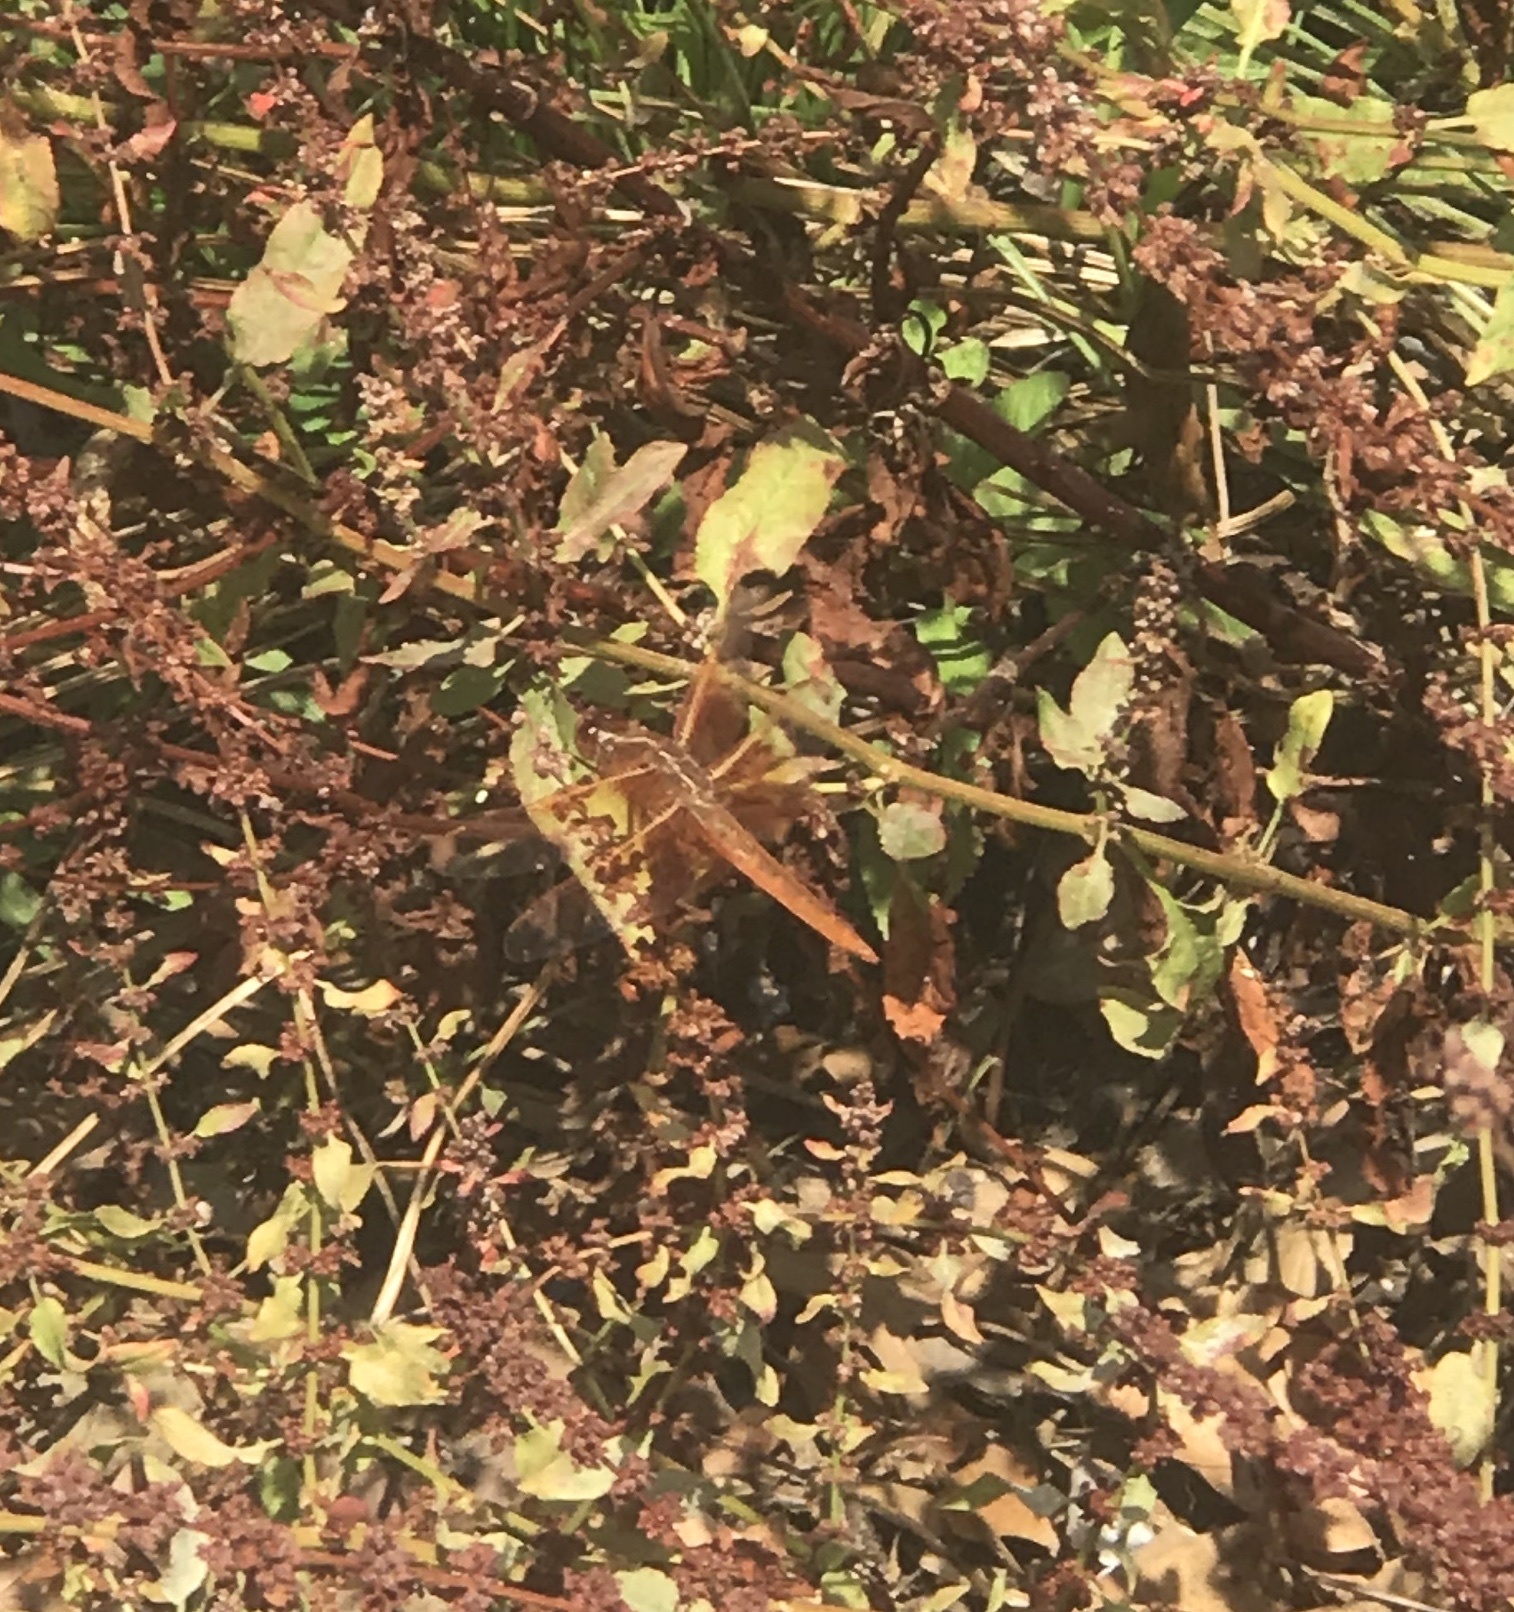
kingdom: Animalia
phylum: Arthropoda
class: Insecta
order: Odonata
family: Libellulidae
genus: Libellula
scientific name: Libellula saturata
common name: Flame skimmer
